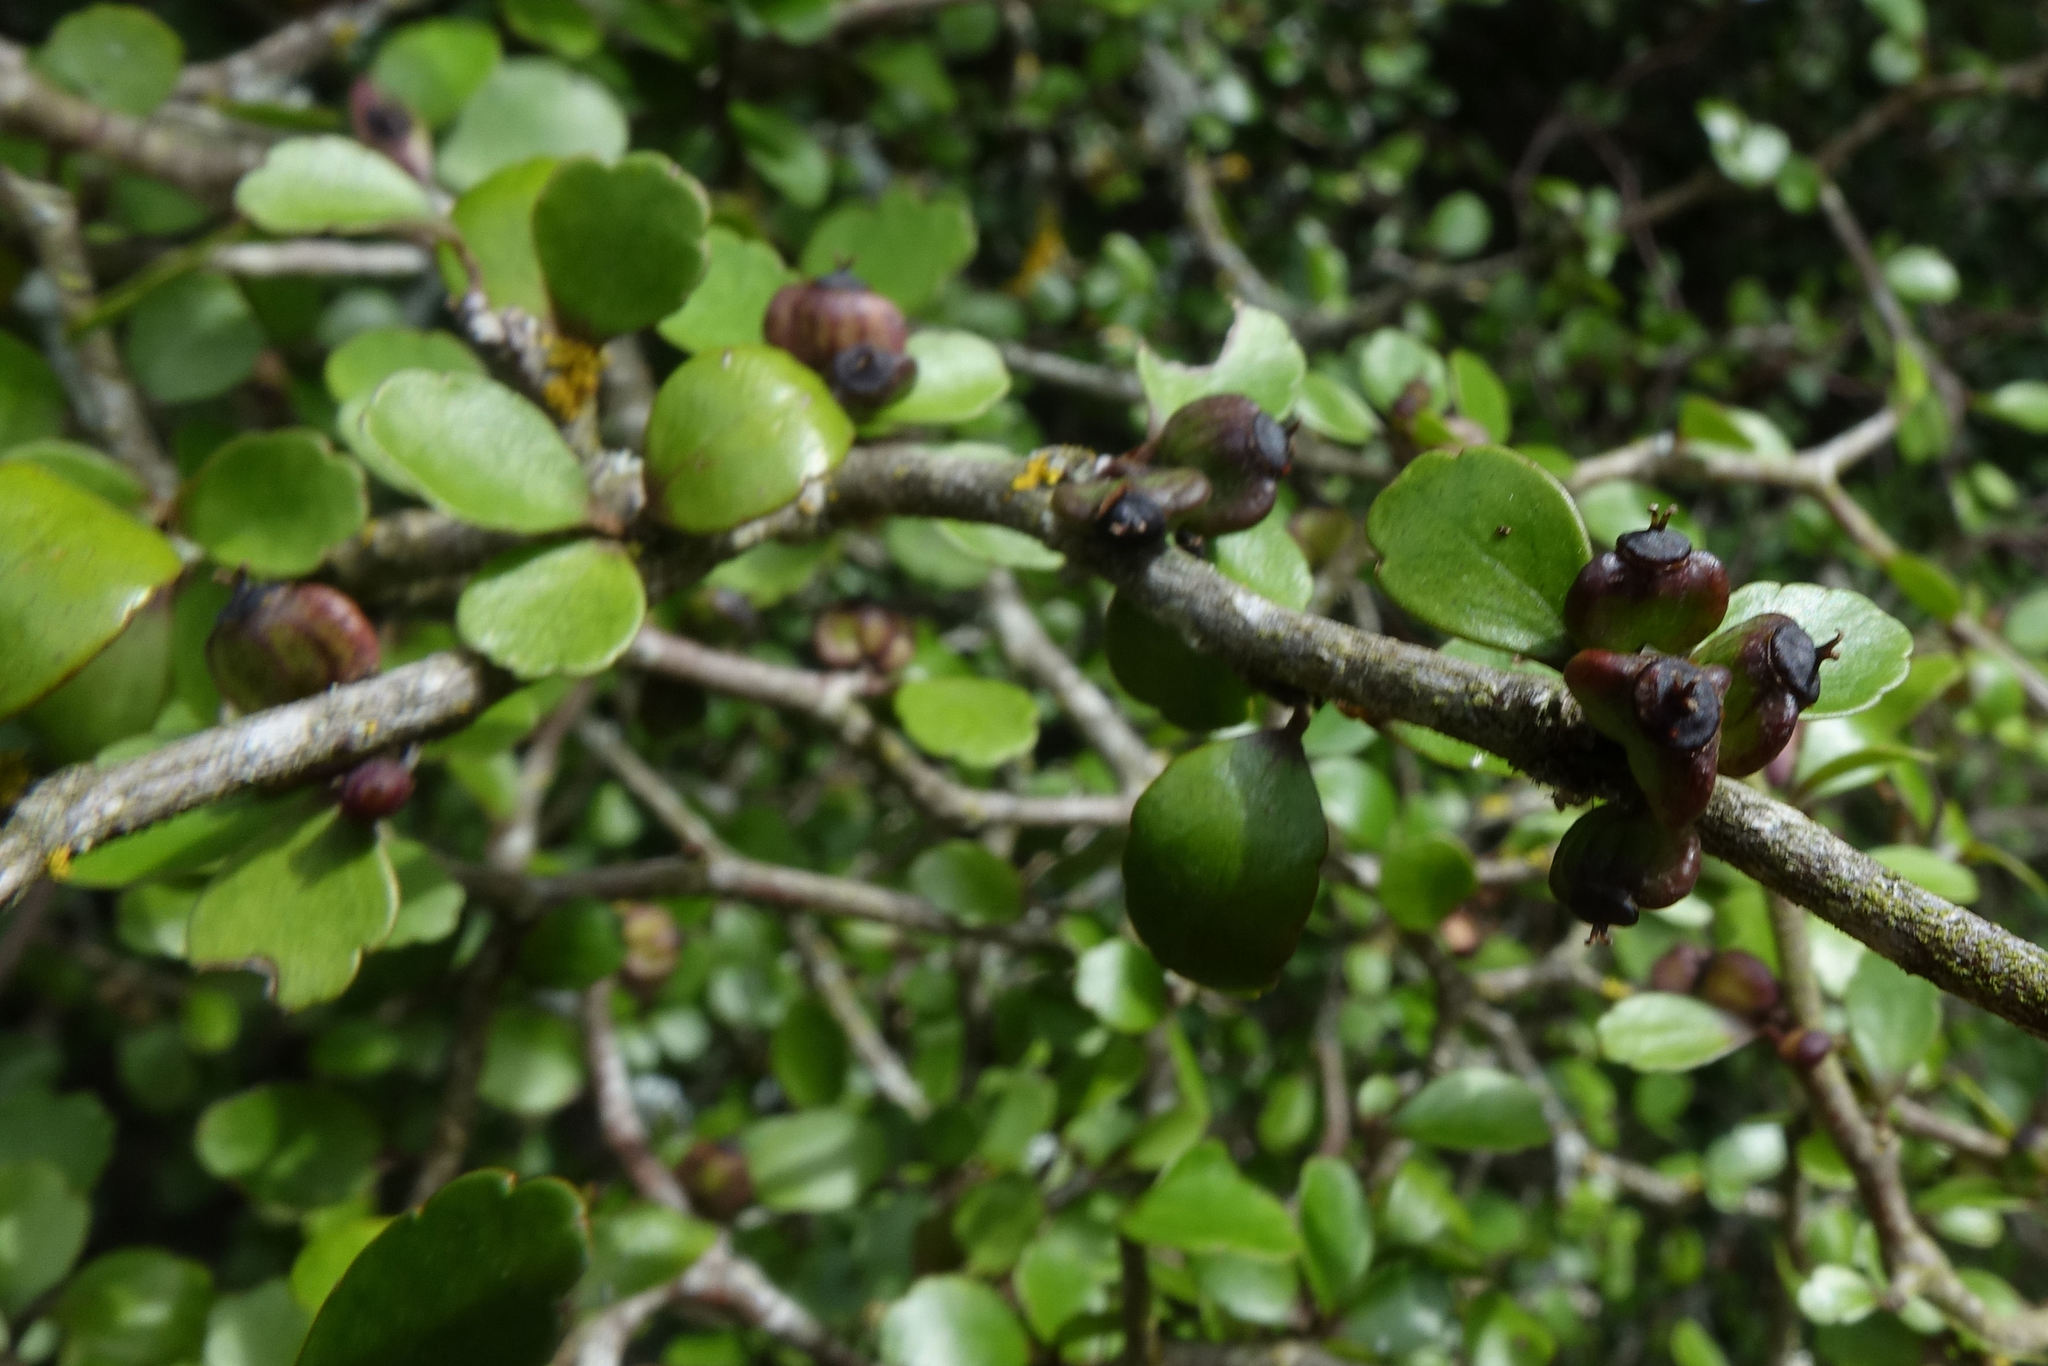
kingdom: Plantae
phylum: Tracheophyta
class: Magnoliopsida
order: Apiales
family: Araliaceae
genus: Raukaua
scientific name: Raukaua anomalus
